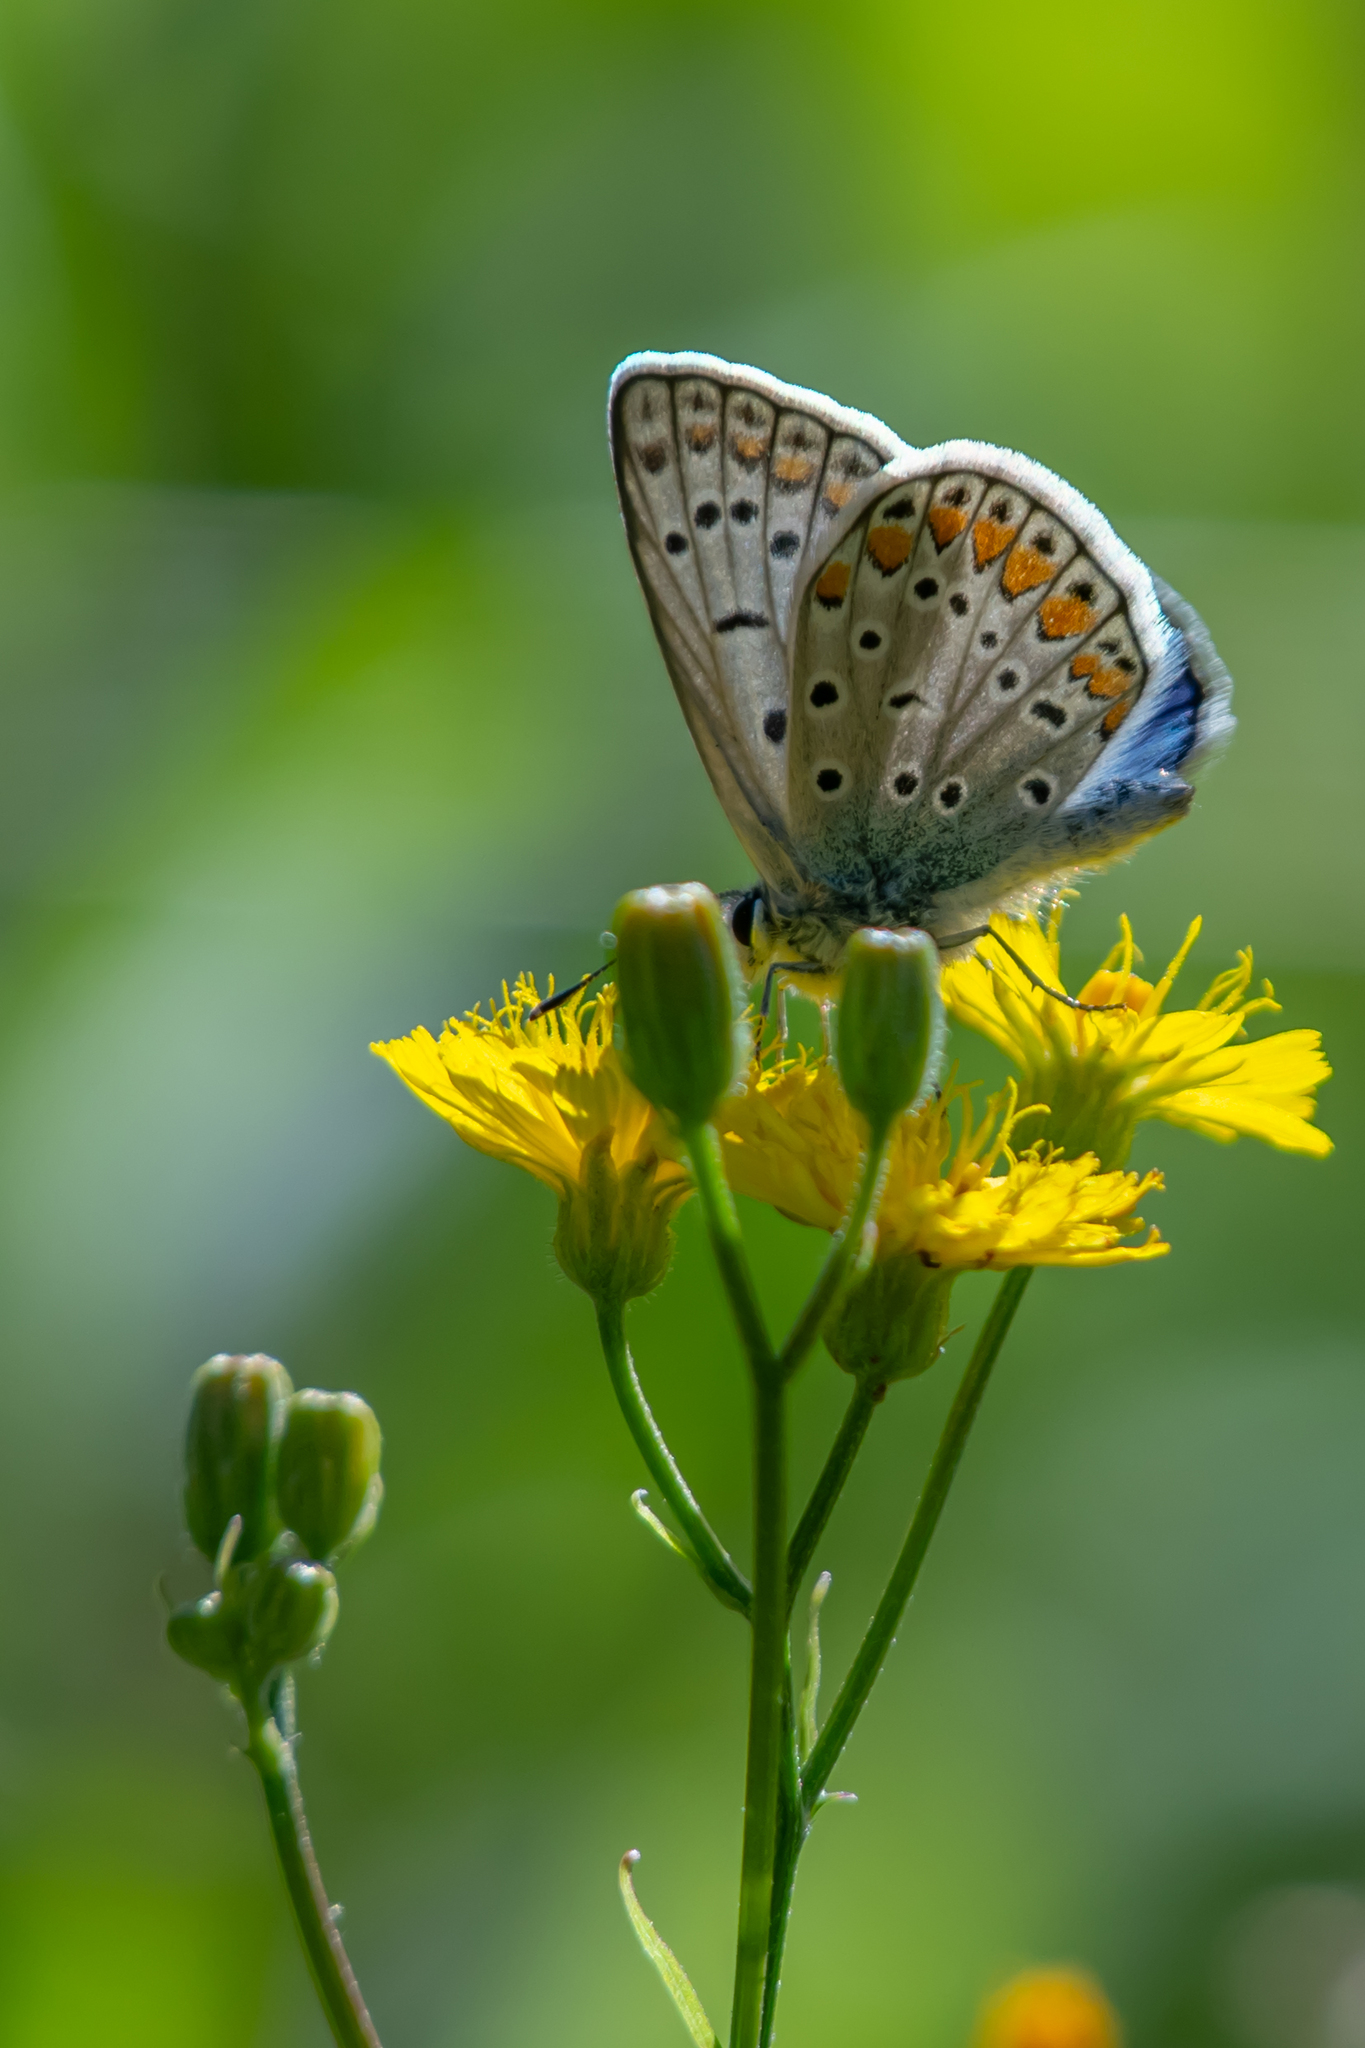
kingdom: Animalia
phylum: Arthropoda
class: Insecta
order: Lepidoptera
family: Lycaenidae
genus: Polyommatus
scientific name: Polyommatus icarus
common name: Common blue
